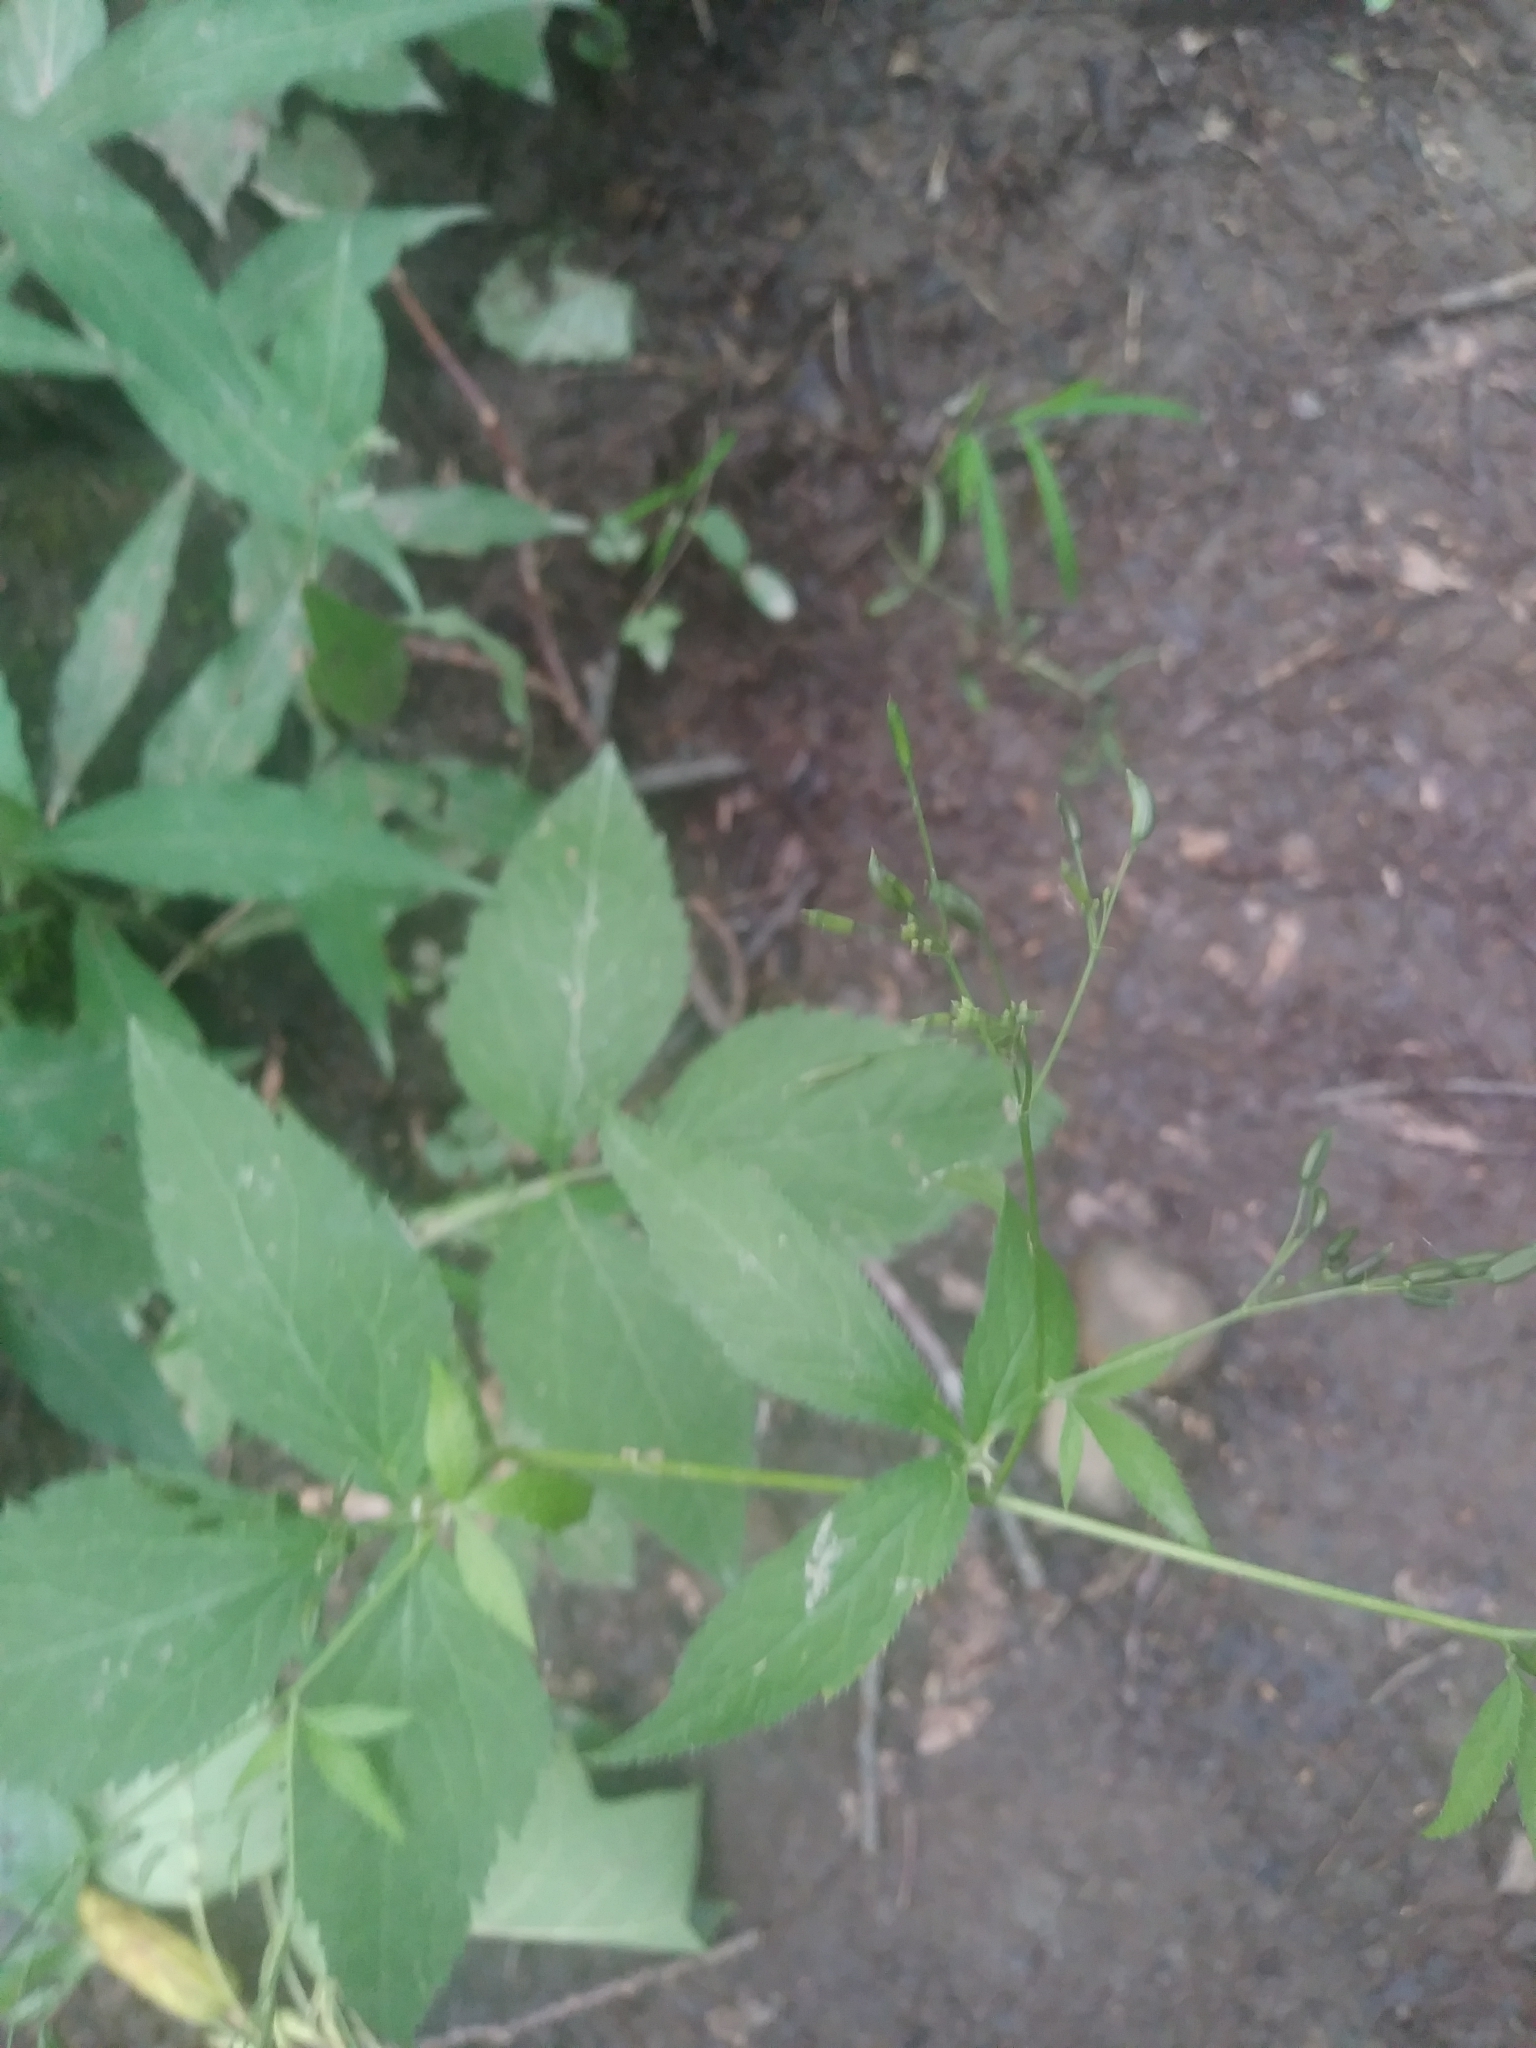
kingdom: Plantae
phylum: Tracheophyta
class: Magnoliopsida
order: Apiales
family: Apiaceae
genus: Cryptotaenia
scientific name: Cryptotaenia canadensis
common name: Honewort
